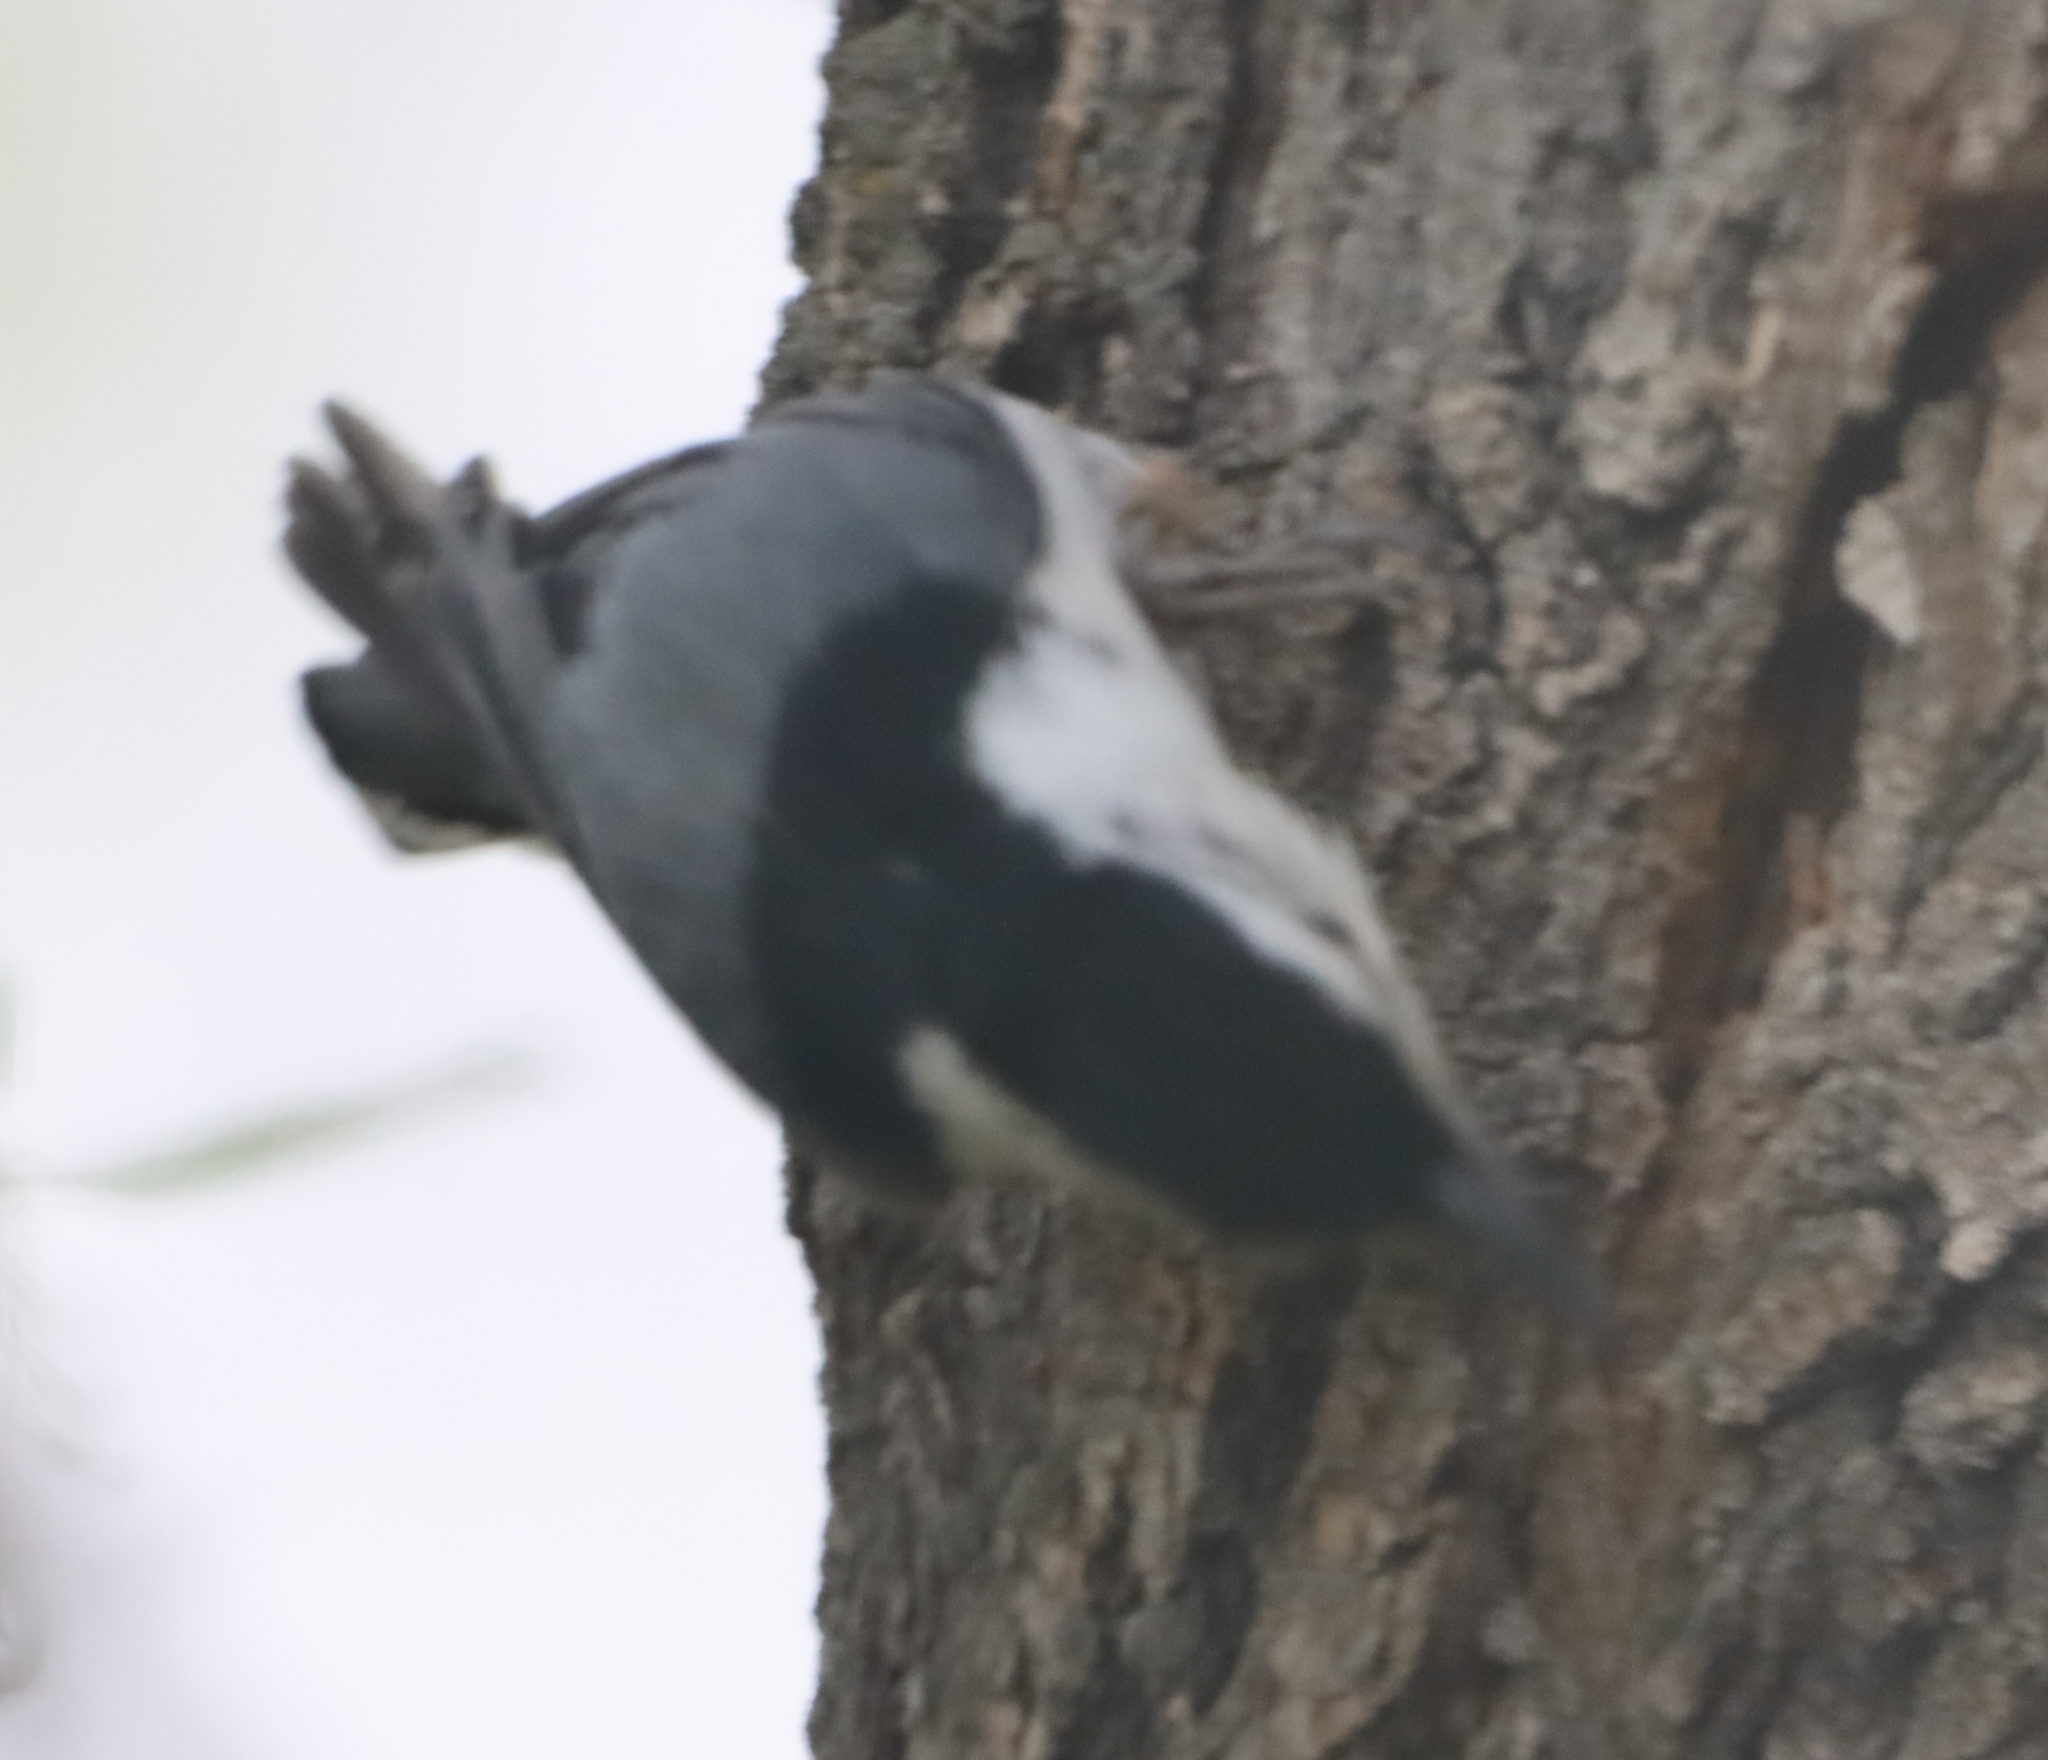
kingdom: Animalia
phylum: Chordata
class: Aves
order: Passeriformes
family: Sittidae
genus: Sitta
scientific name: Sitta carolinensis
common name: White-breasted nuthatch
